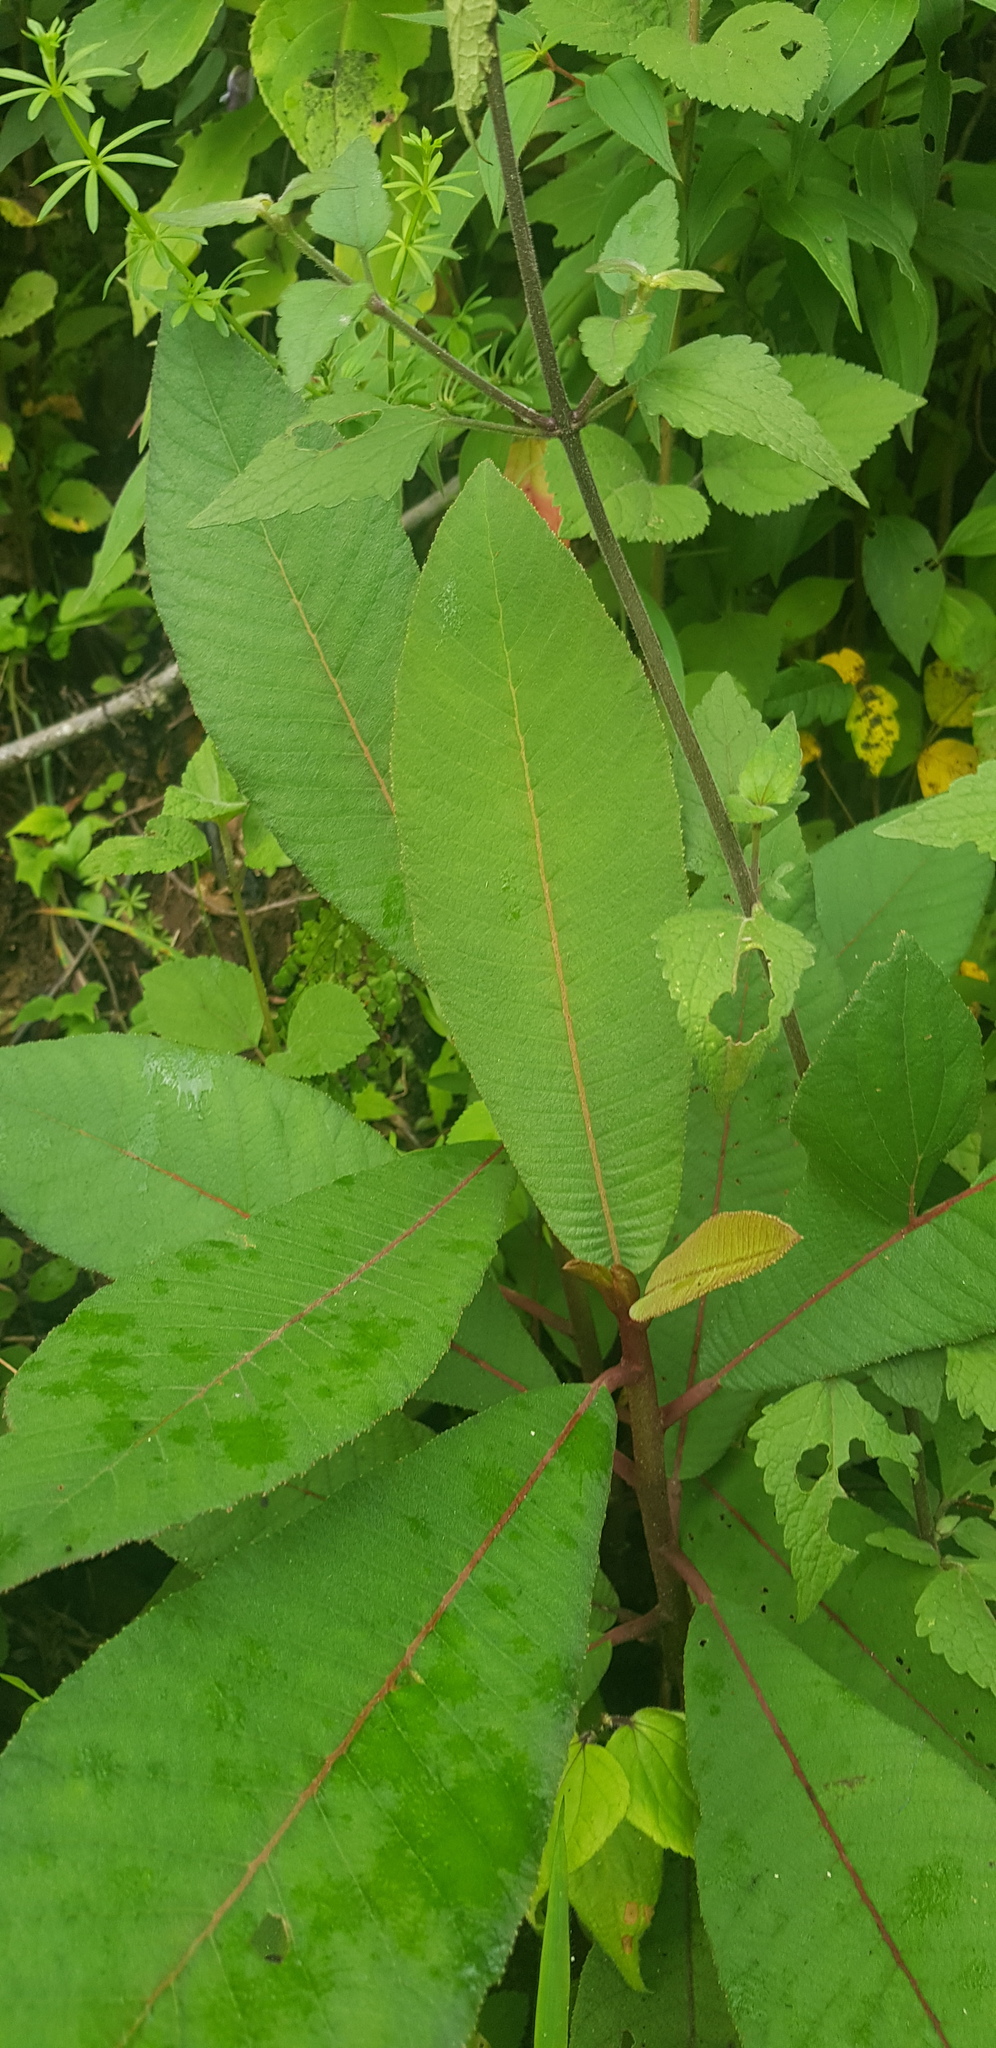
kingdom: Plantae
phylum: Tracheophyta
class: Magnoliopsida
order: Ericales
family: Actinidiaceae
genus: Saurauia
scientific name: Saurauia scabrida
